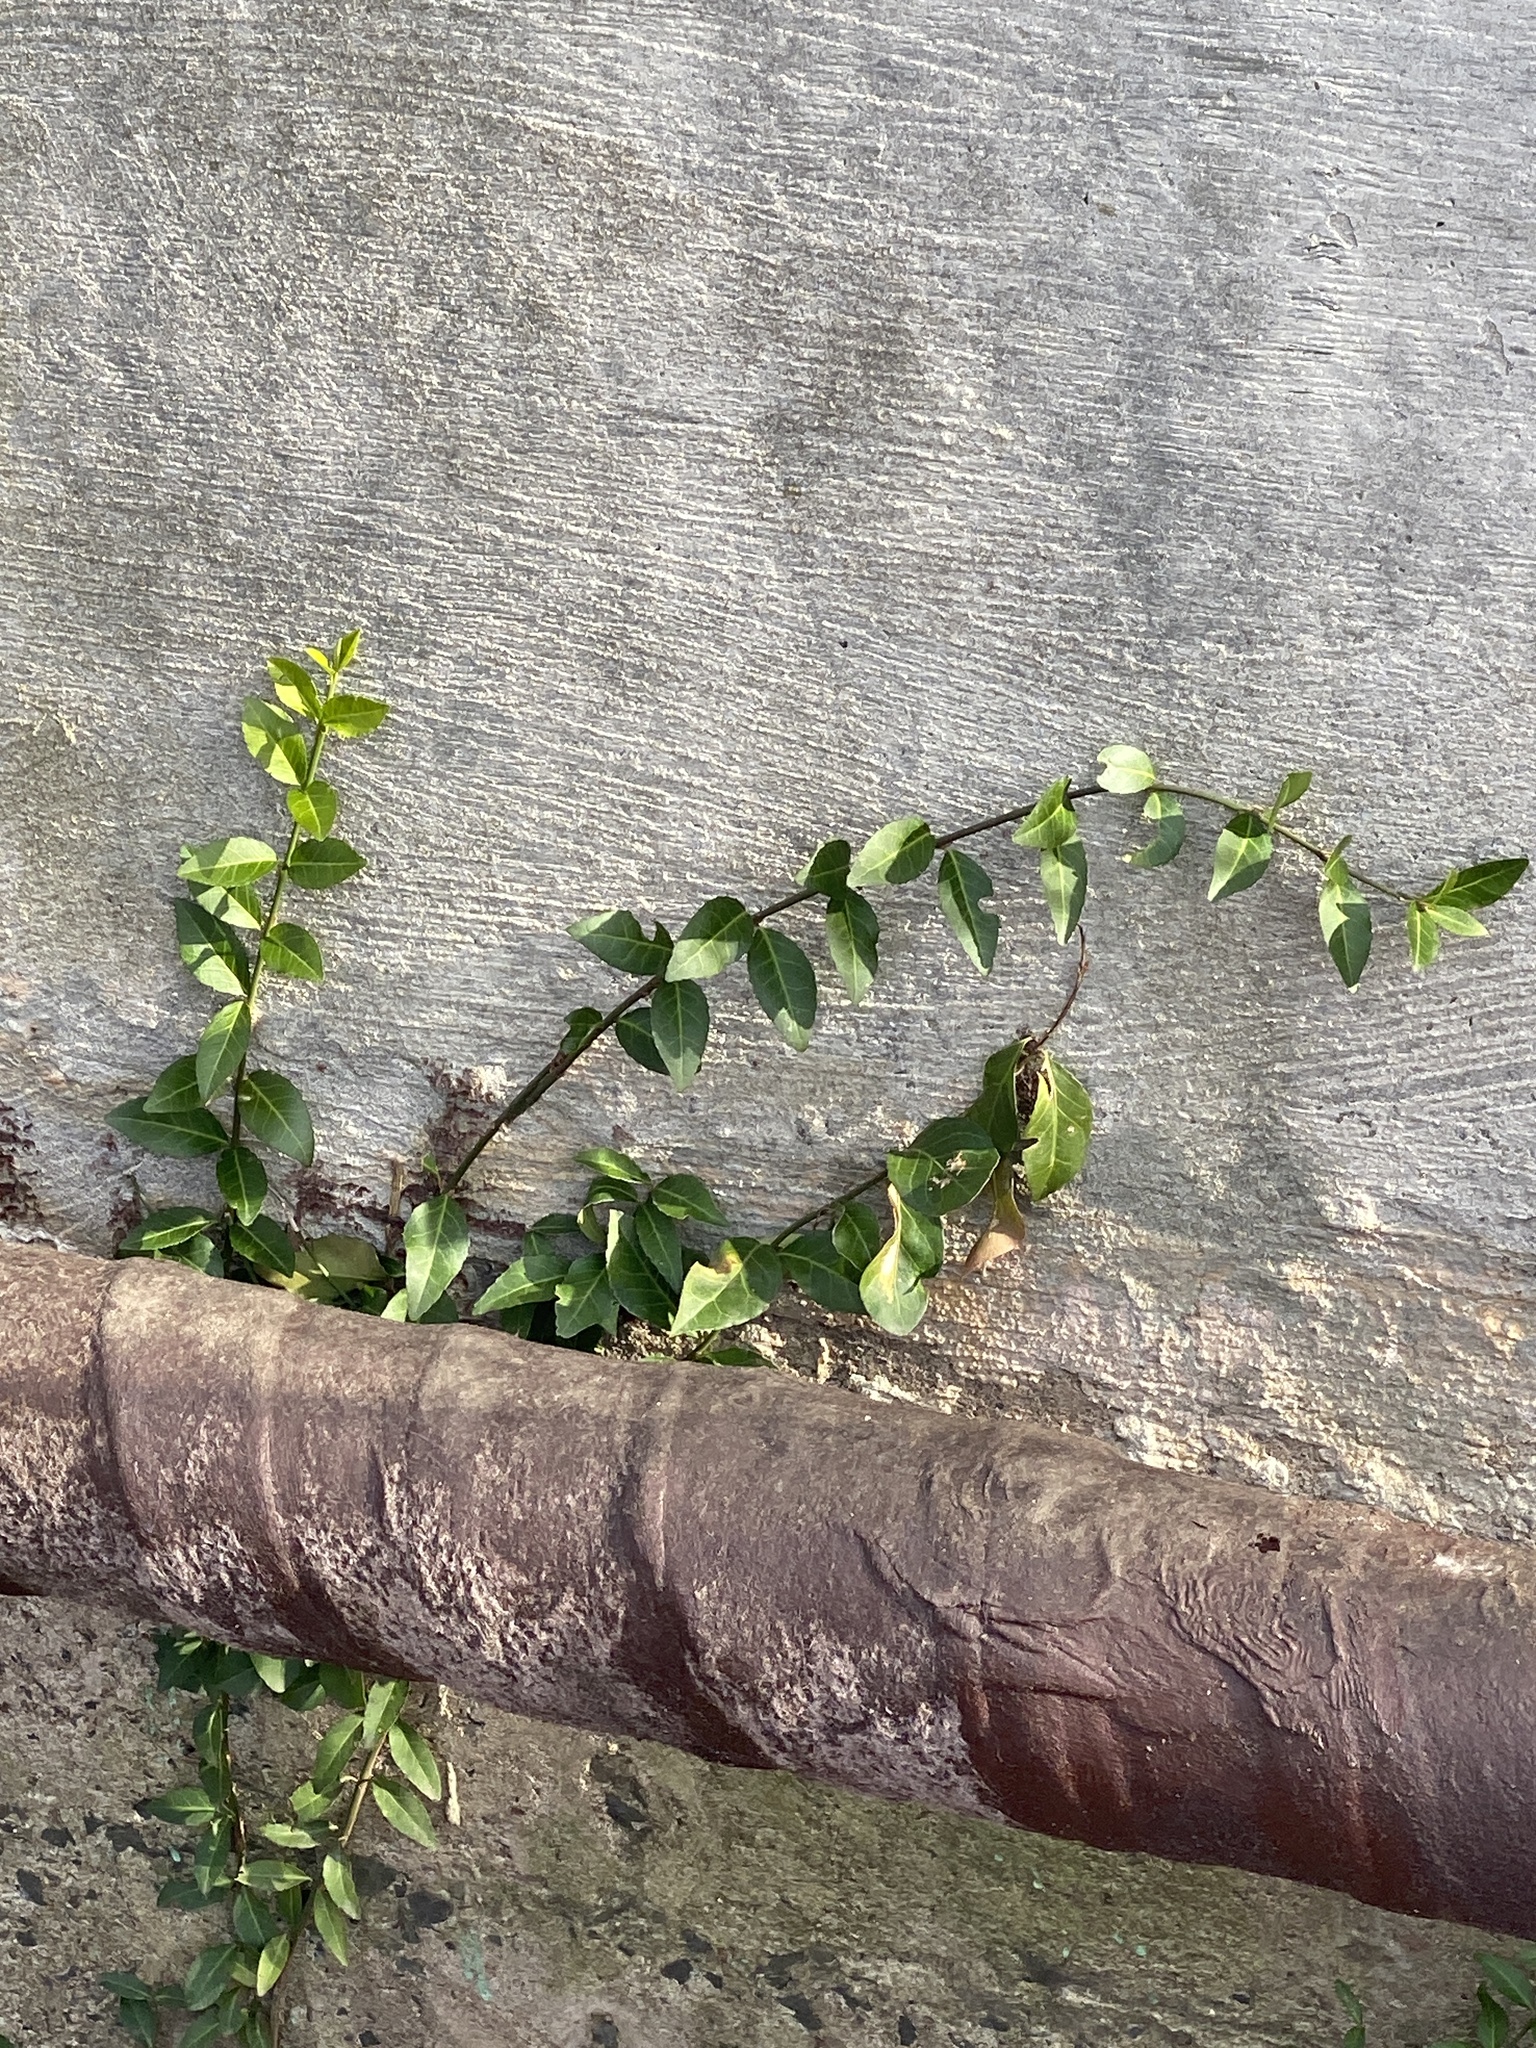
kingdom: Plantae
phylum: Tracheophyta
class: Magnoliopsida
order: Celastrales
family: Celastraceae
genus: Euonymus
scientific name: Euonymus fortunei
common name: Climbing euonymus
